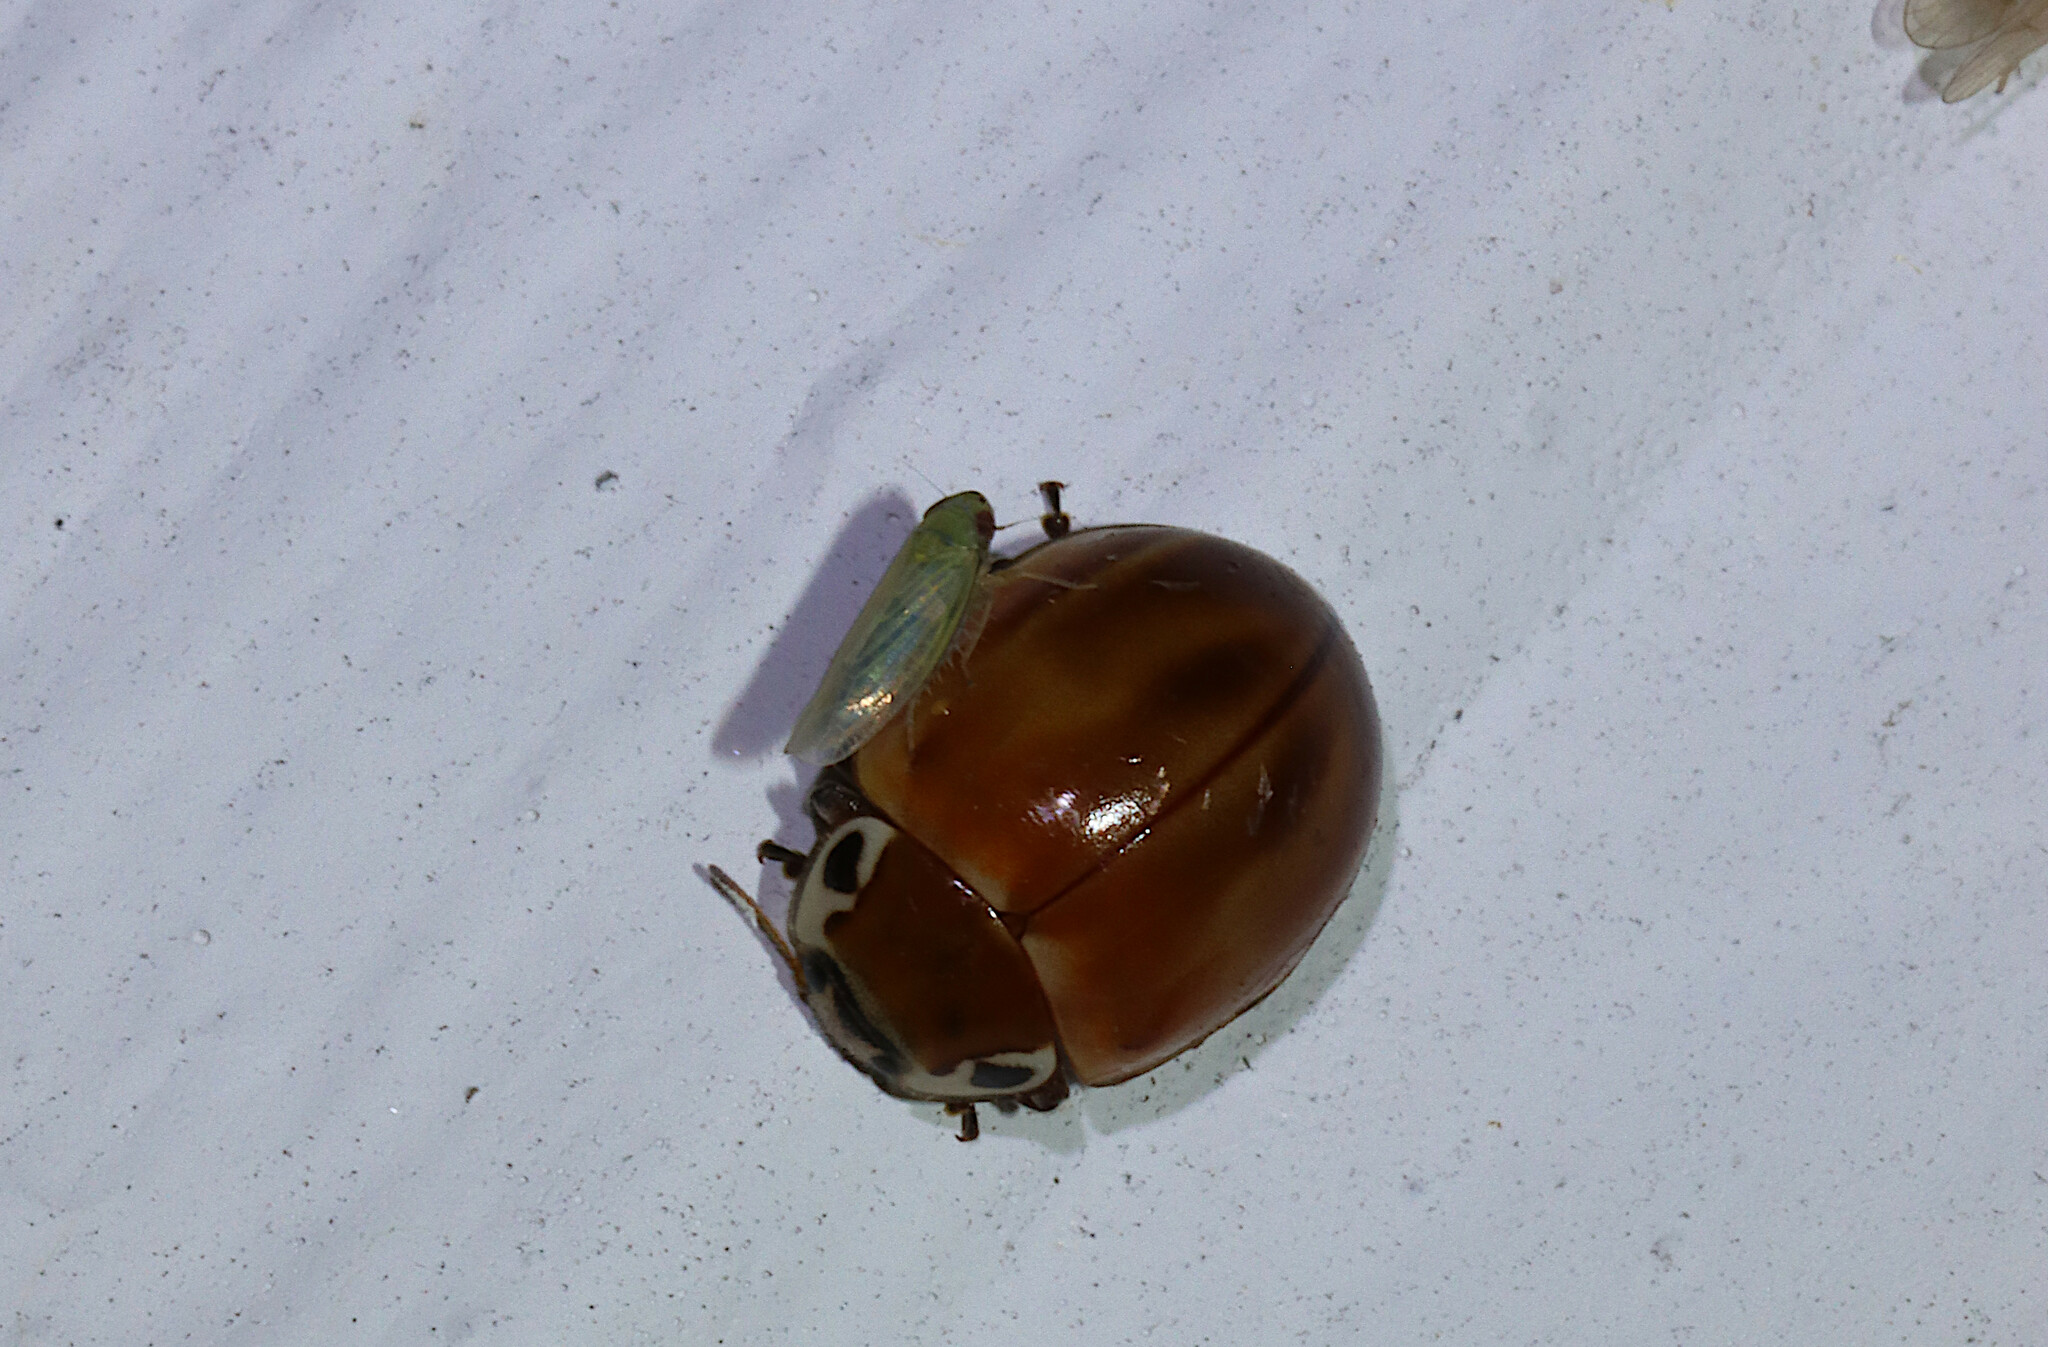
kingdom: Animalia
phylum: Arthropoda
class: Insecta
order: Coleoptera
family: Coccinellidae
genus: Myzia
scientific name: Myzia pullata
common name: Streaked lady beetle
